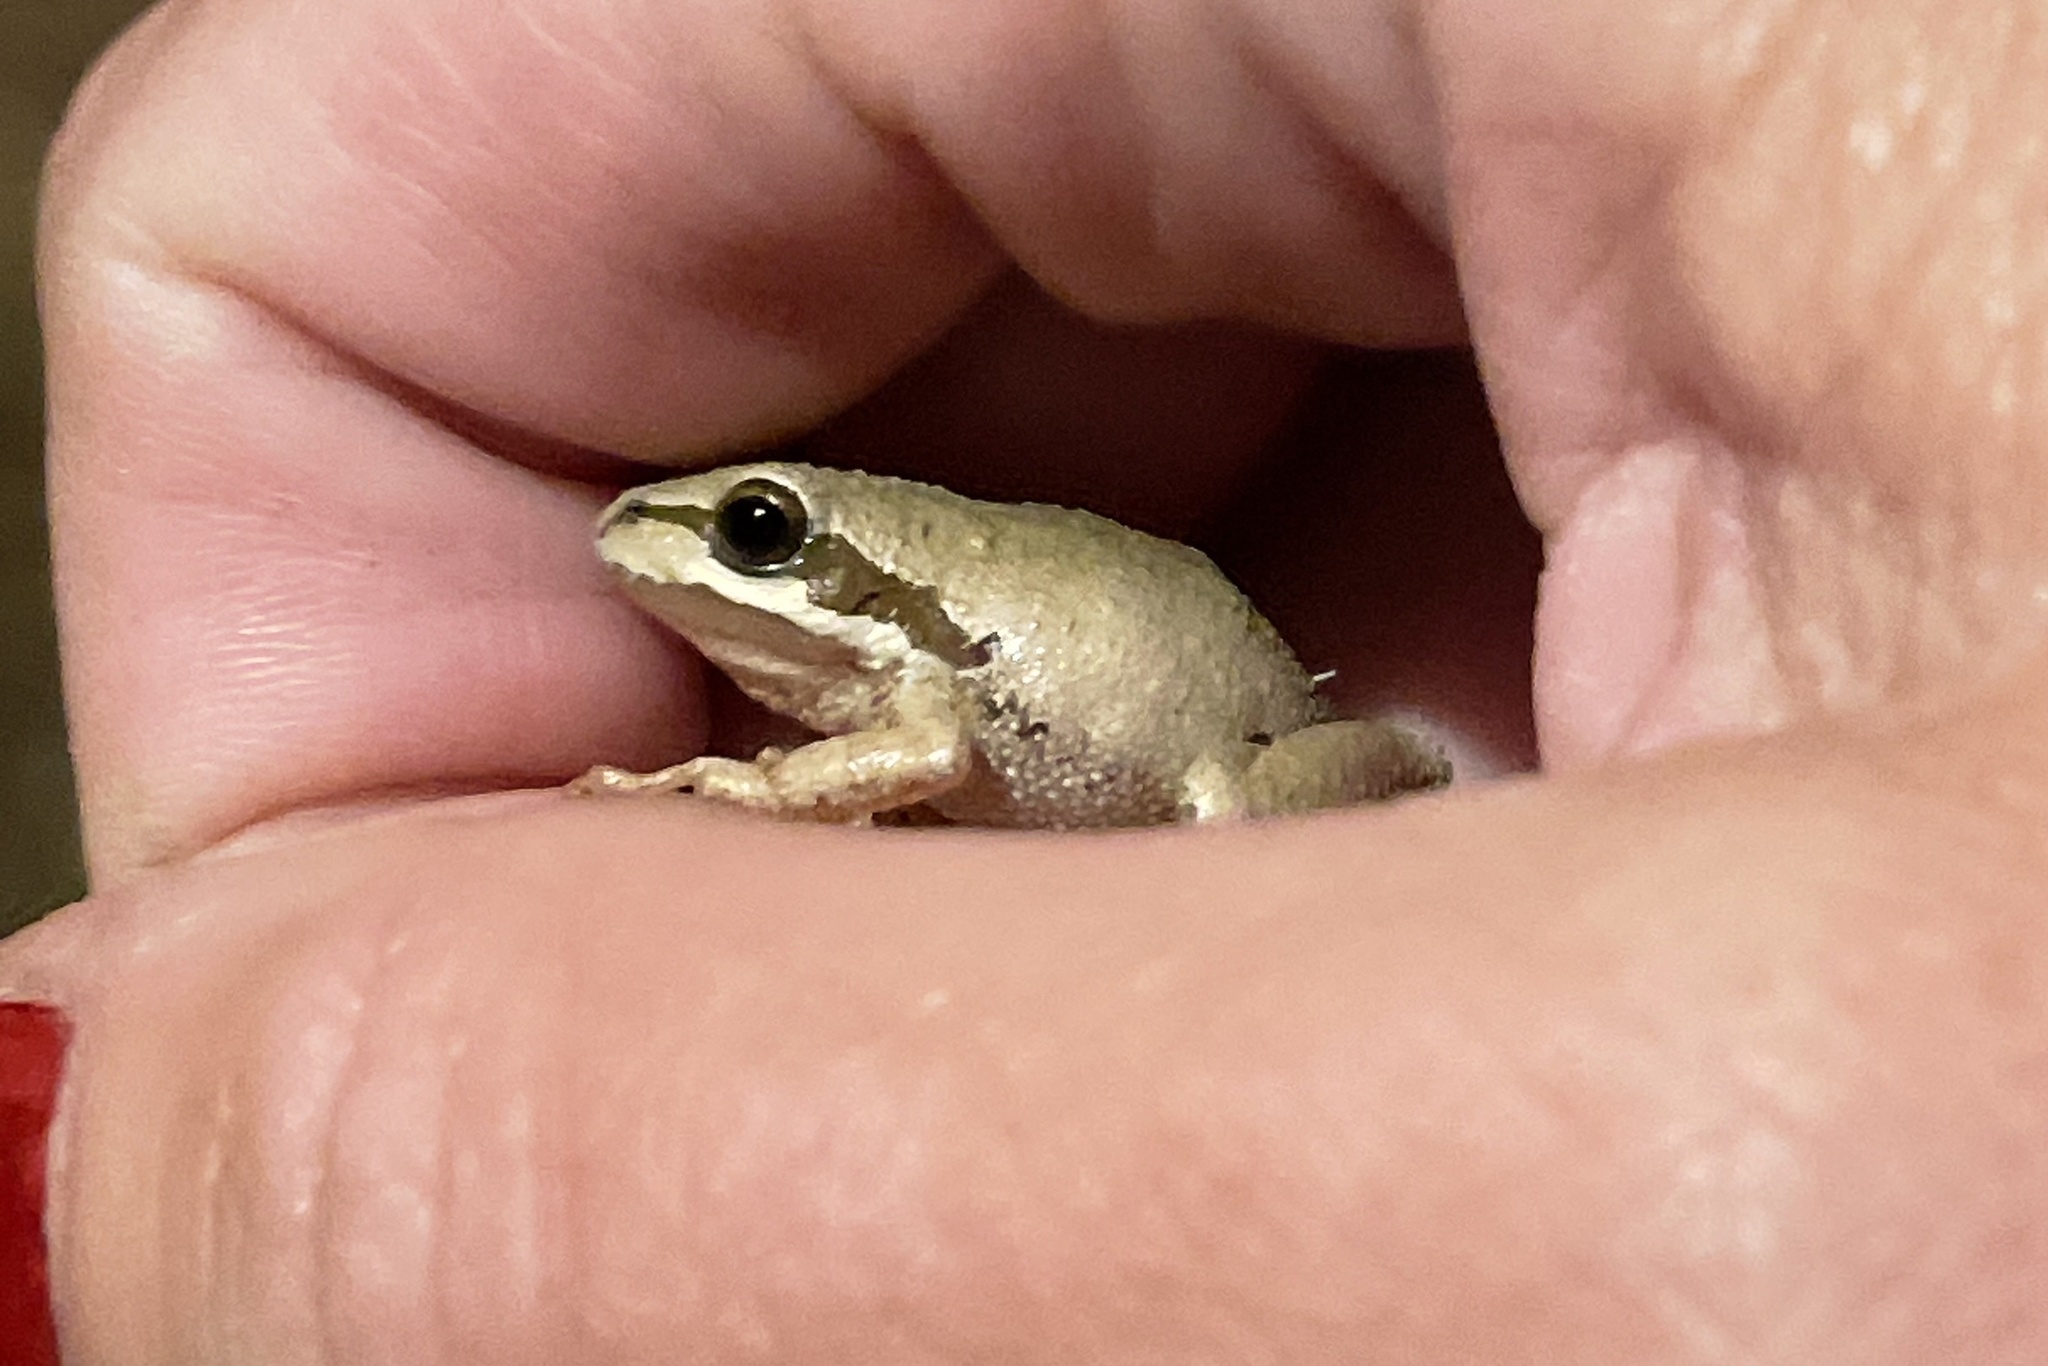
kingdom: Animalia
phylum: Chordata
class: Amphibia
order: Anura
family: Hylidae
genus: Pseudacris
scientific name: Pseudacris regilla
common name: Pacific chorus frog
